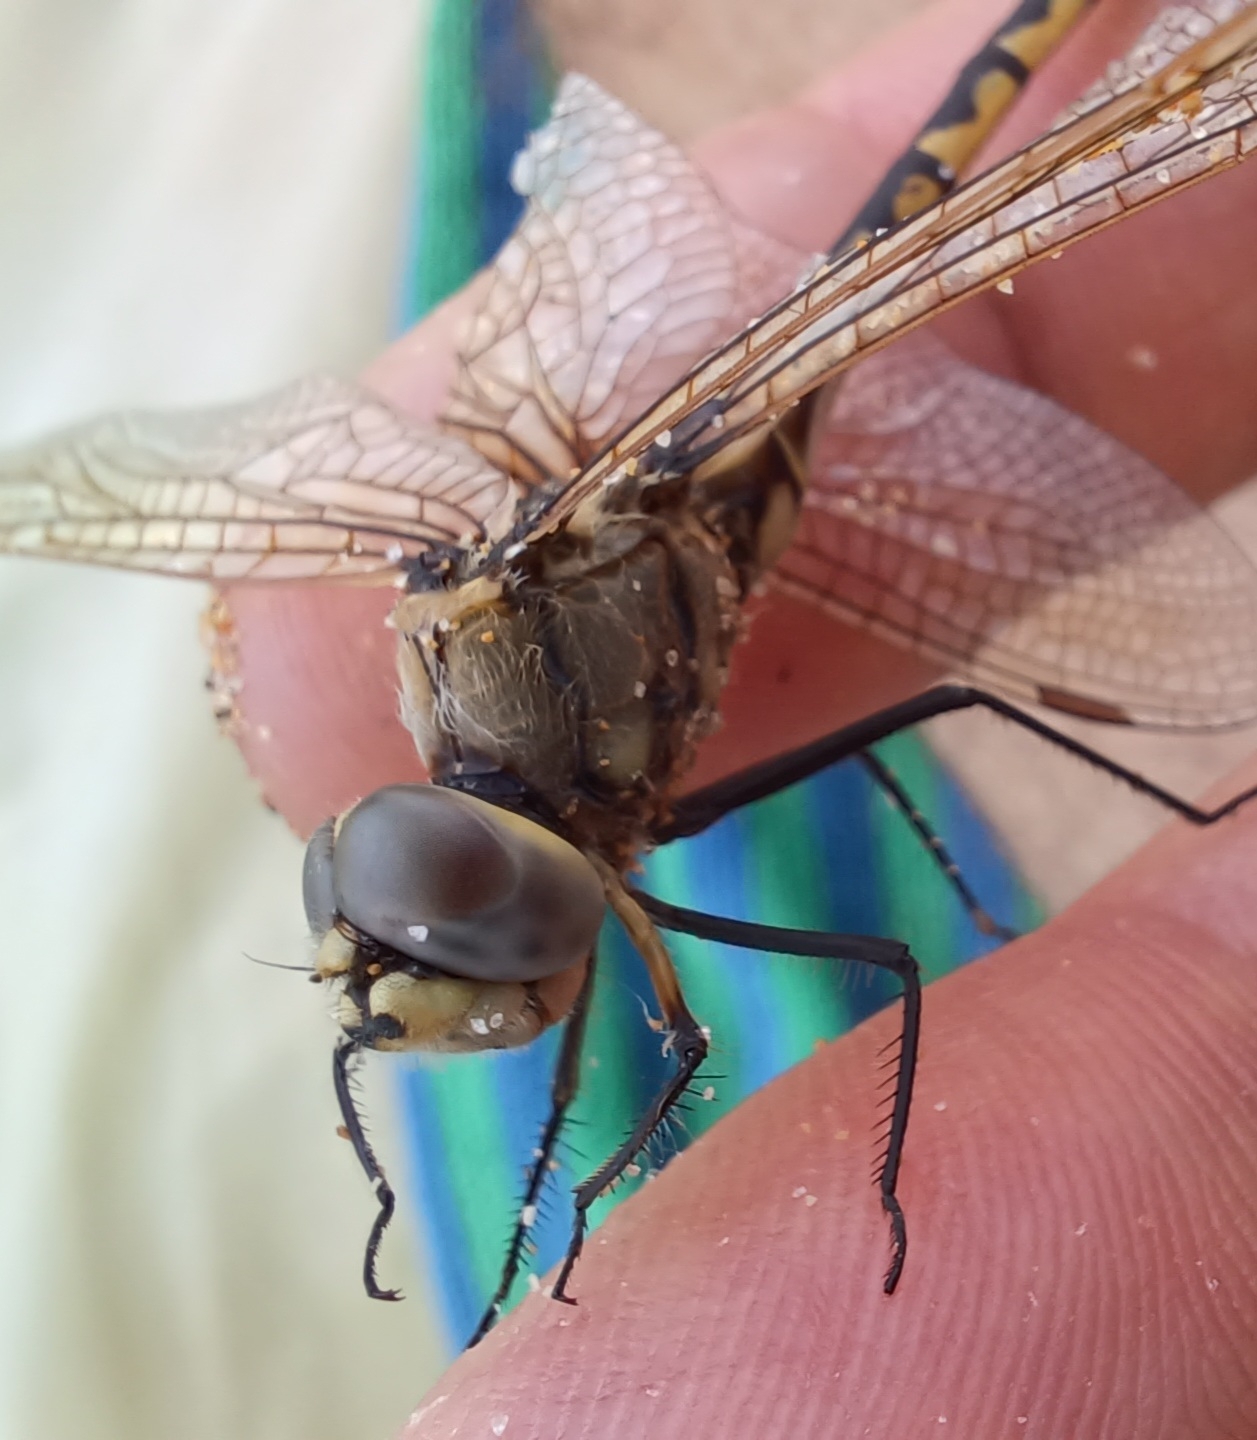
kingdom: Animalia
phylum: Arthropoda
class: Insecta
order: Odonata
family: Corduliidae
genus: Hemicordulia
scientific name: Hemicordulia tau
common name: Tau emerald
